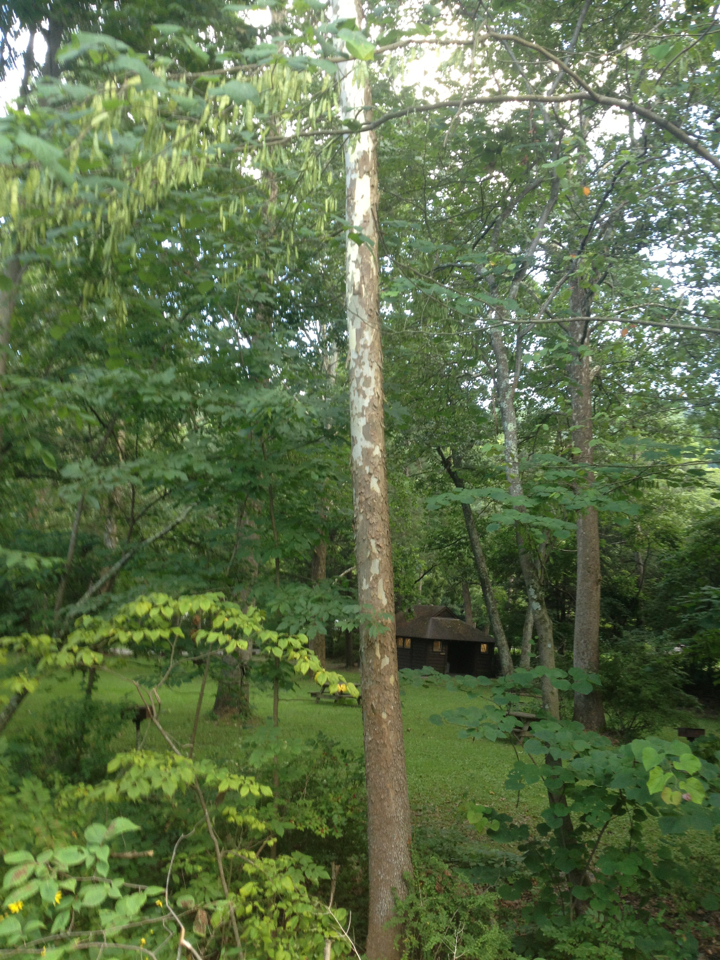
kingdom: Plantae
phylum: Tracheophyta
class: Magnoliopsida
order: Proteales
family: Platanaceae
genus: Platanus
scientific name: Platanus occidentalis
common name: American sycamore
